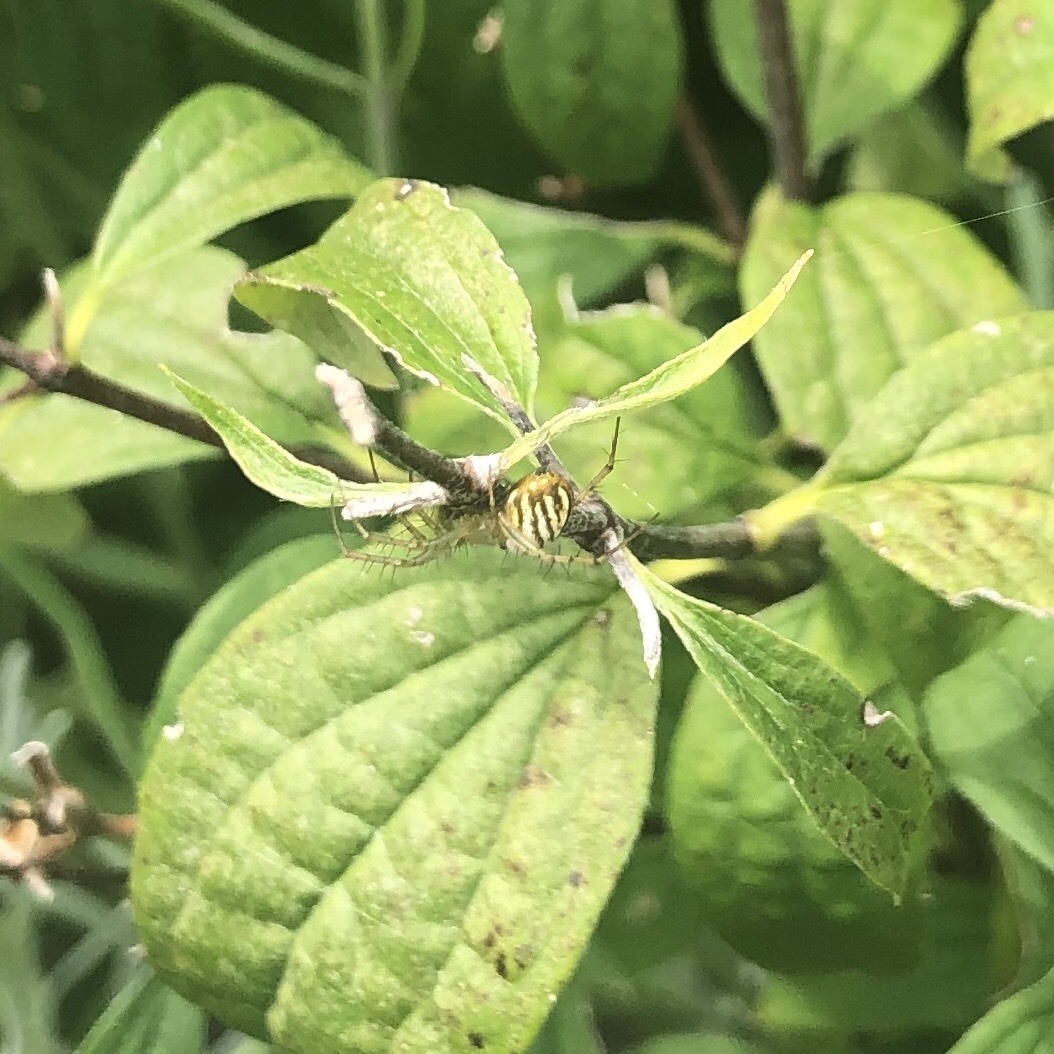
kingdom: Animalia
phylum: Arthropoda
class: Arachnida
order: Araneae
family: Araneidae
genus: Mangora
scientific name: Mangora gibberosa
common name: Lined orbweaver
